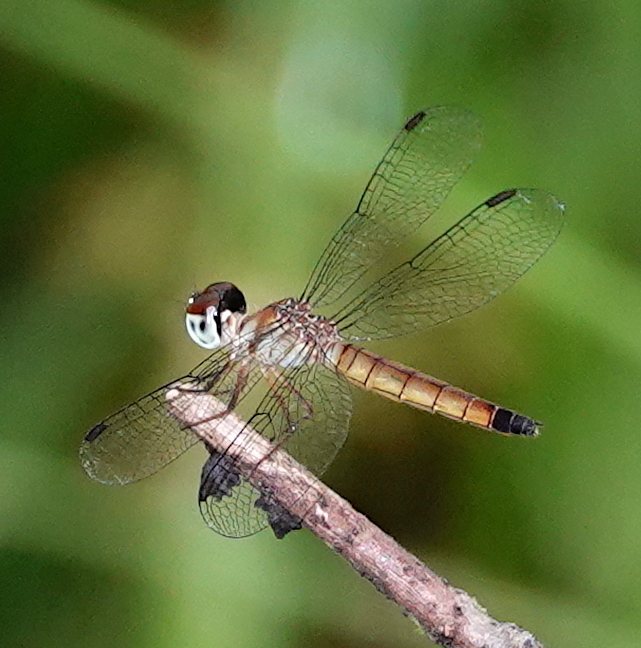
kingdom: Animalia
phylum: Arthropoda
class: Insecta
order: Odonata
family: Libellulidae
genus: Brachygonia
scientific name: Brachygonia oculata
